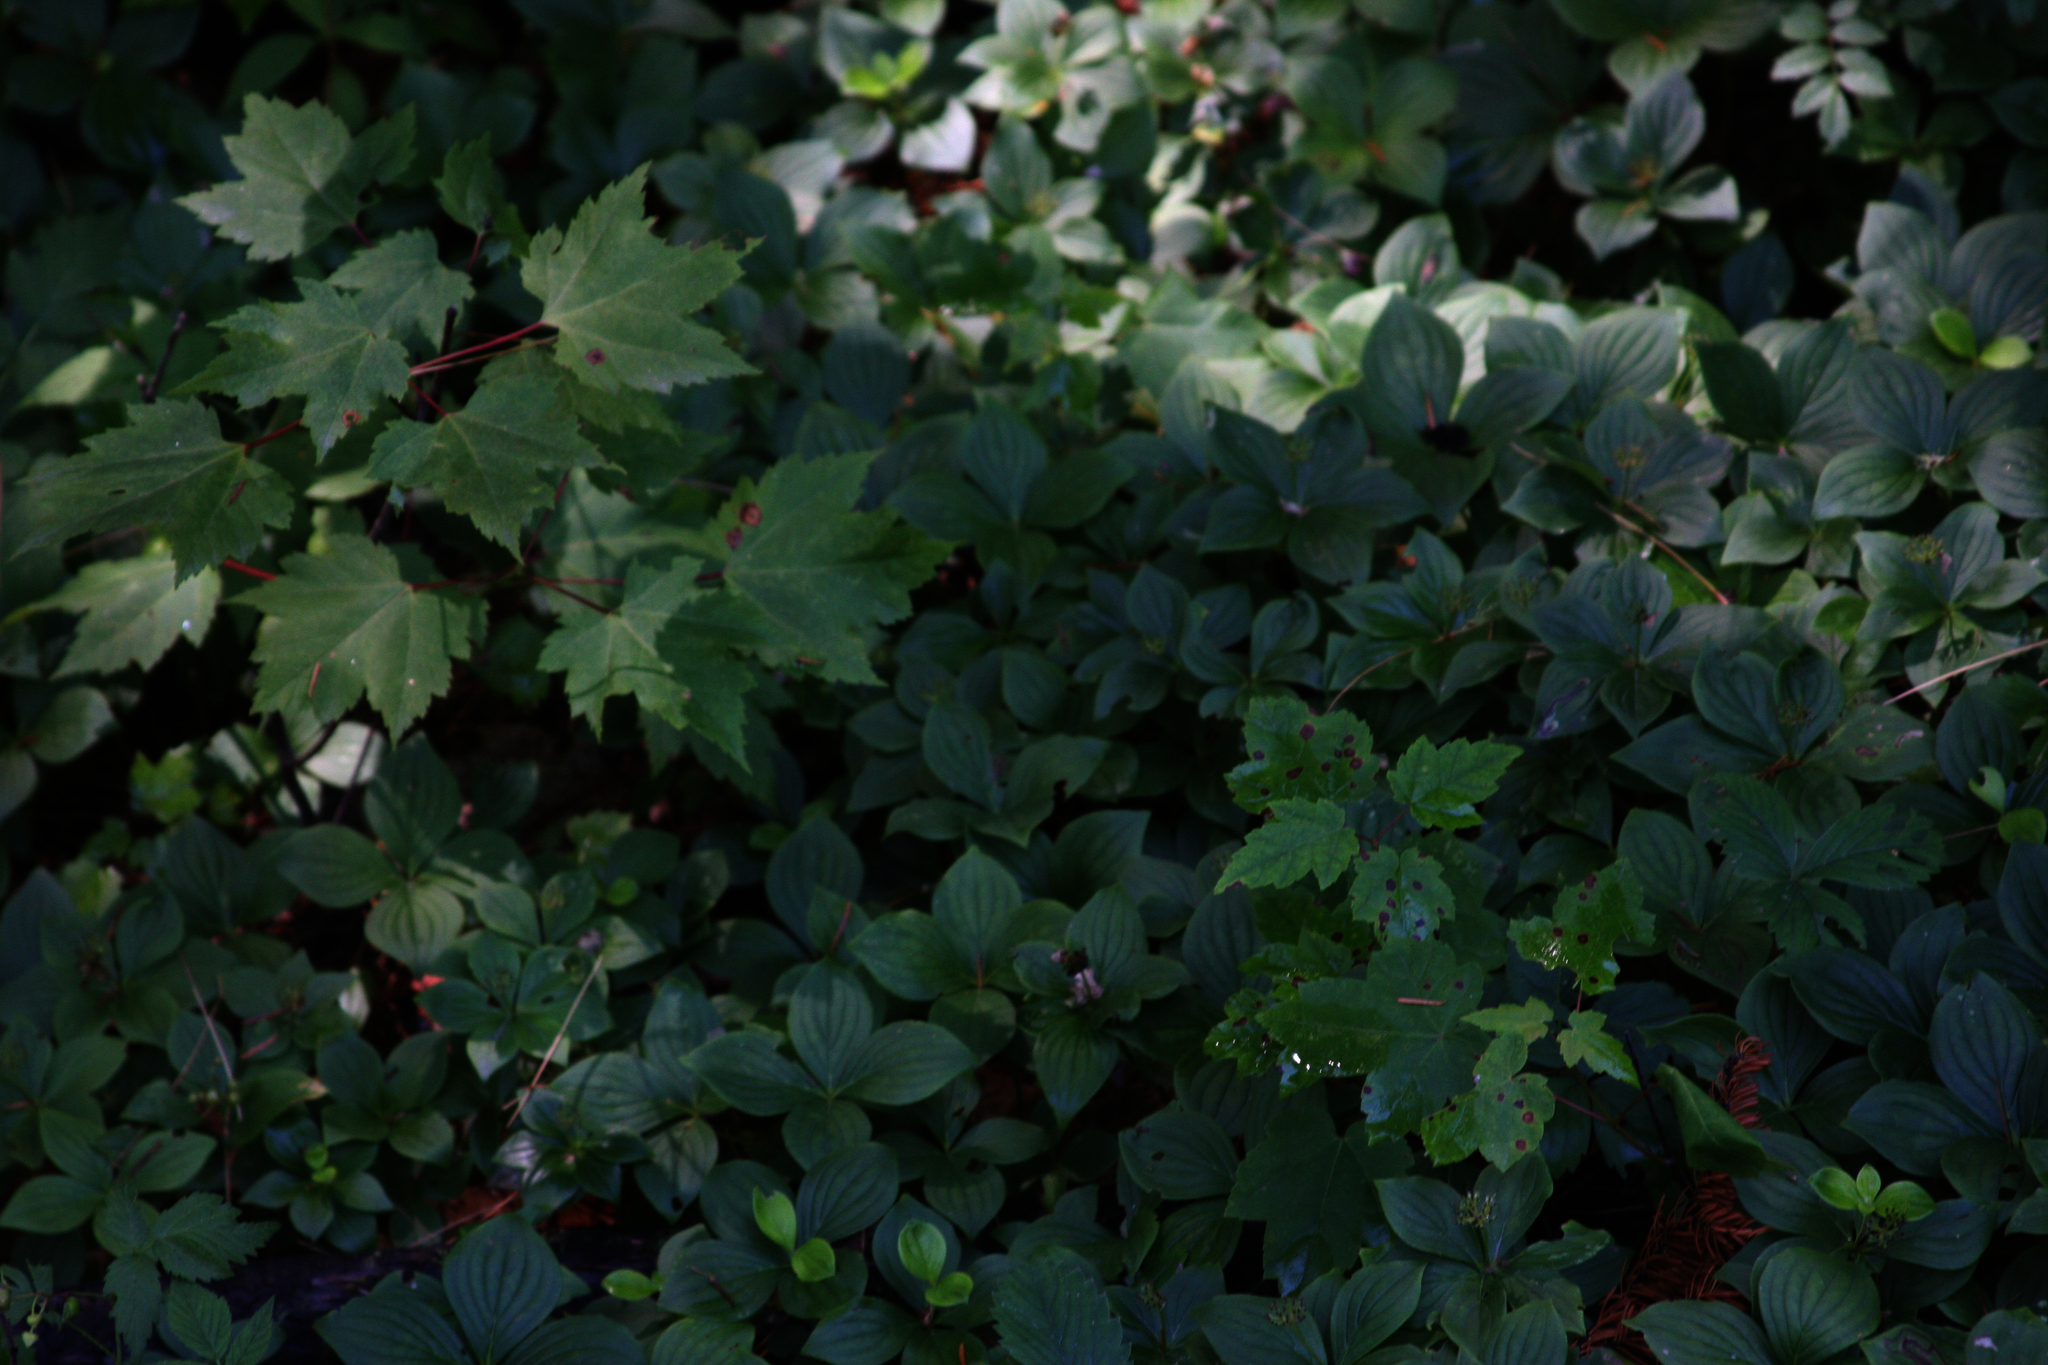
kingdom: Plantae
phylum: Tracheophyta
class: Magnoliopsida
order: Sapindales
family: Sapindaceae
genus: Acer
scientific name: Acer rubrum
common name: Red maple
